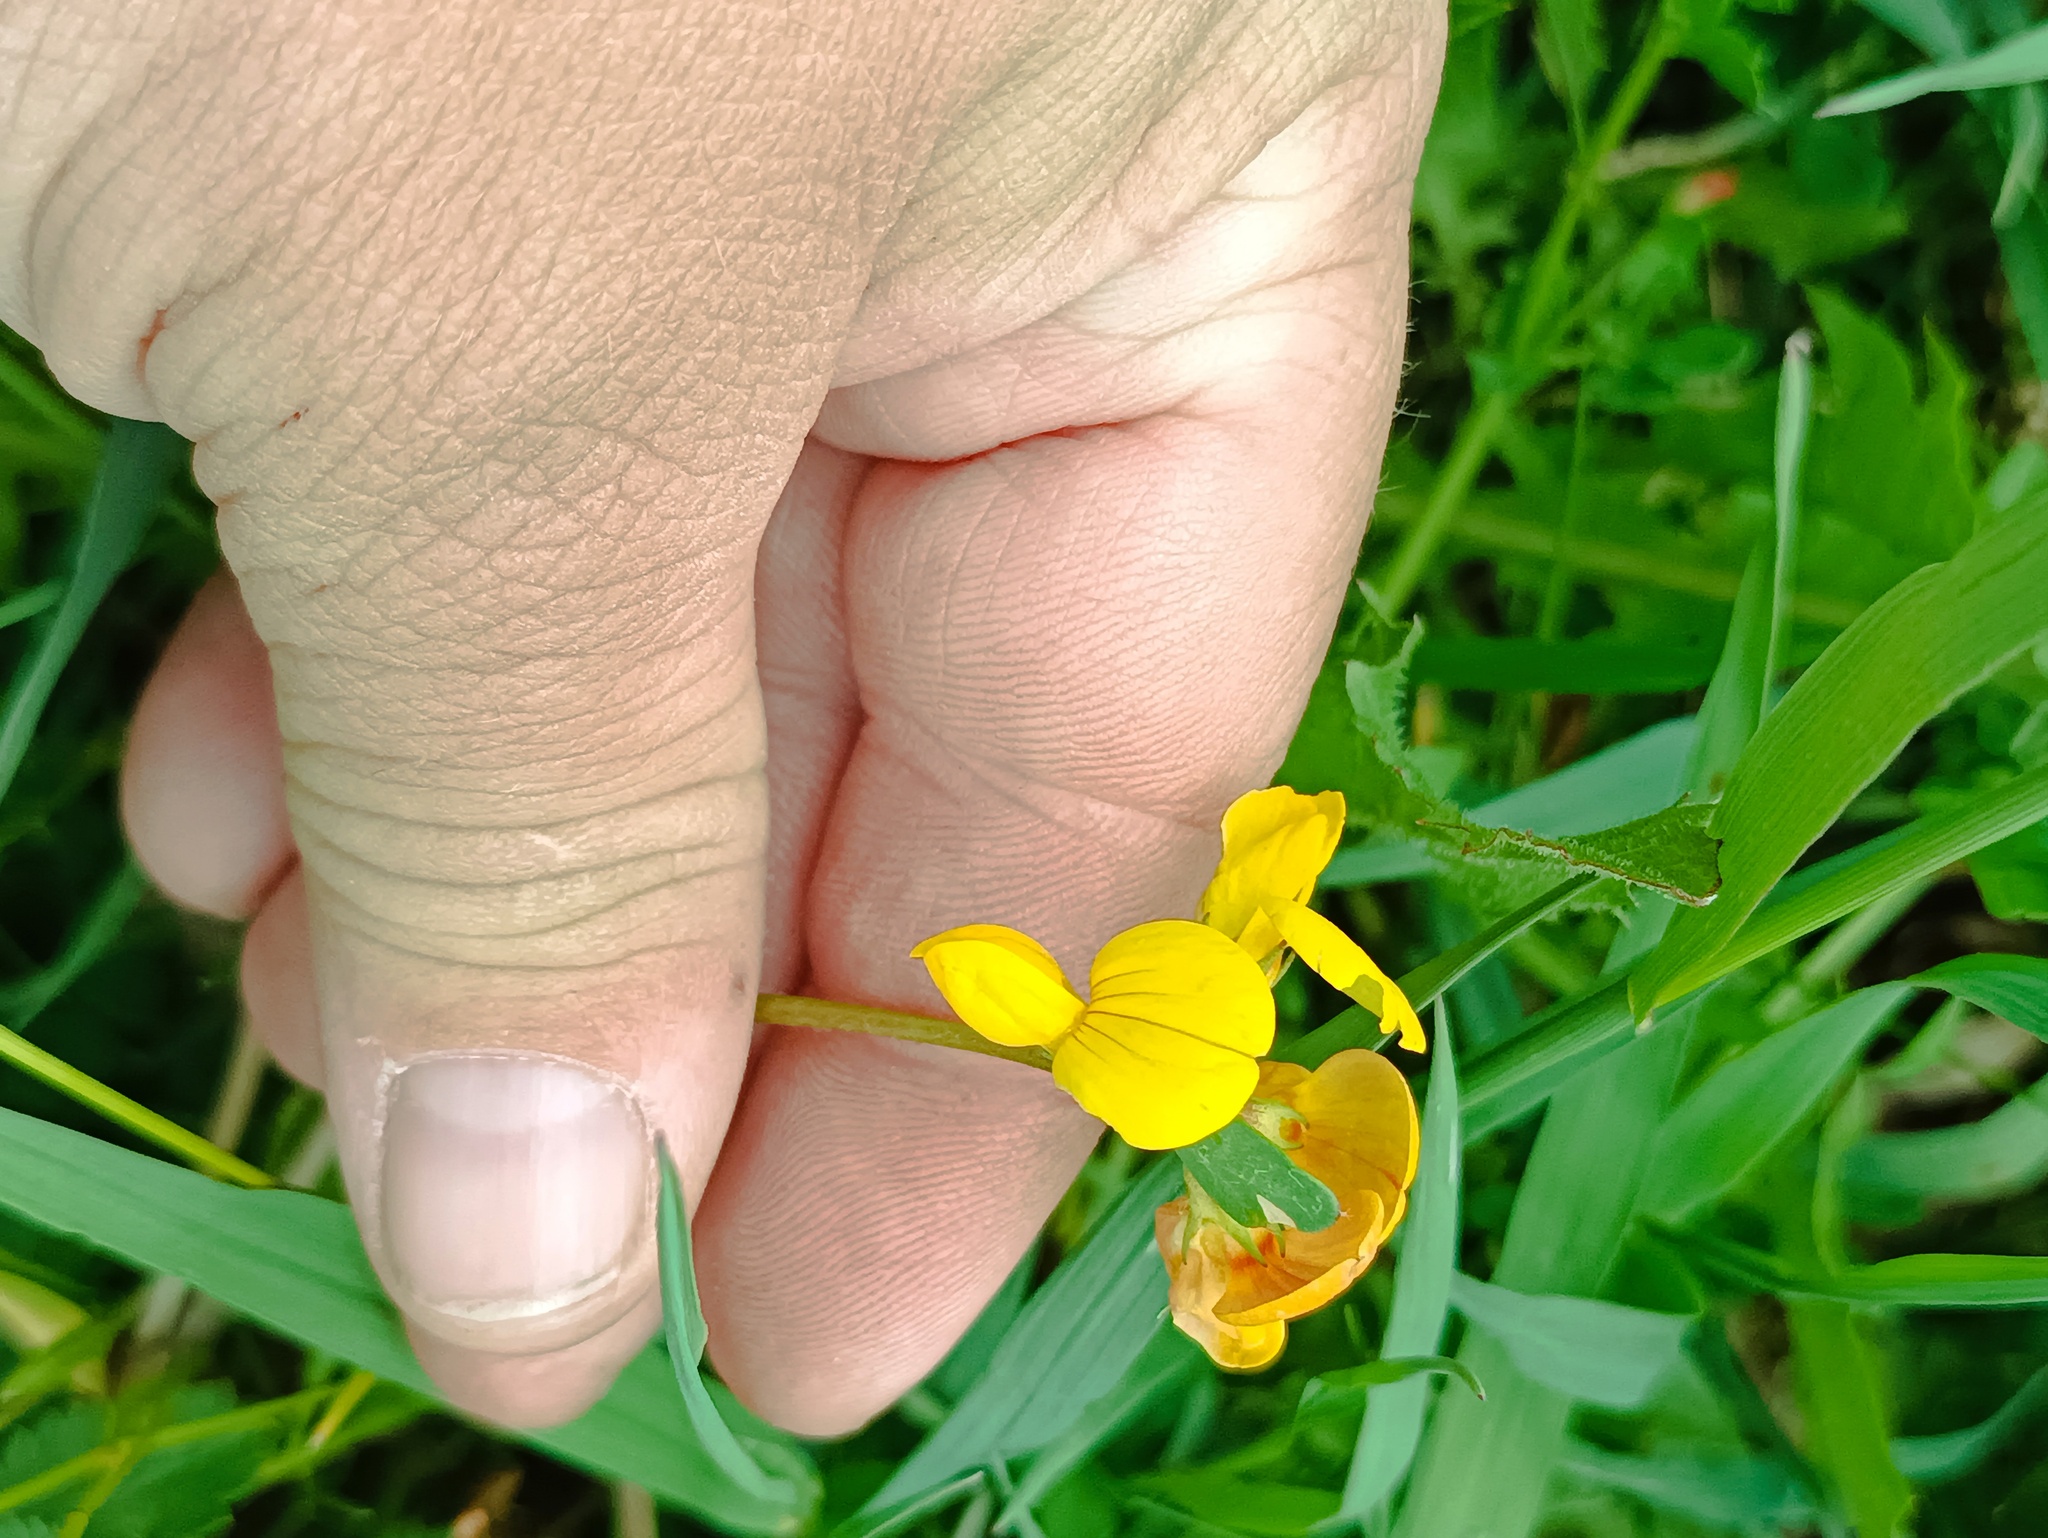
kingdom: Plantae
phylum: Tracheophyta
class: Magnoliopsida
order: Fabales
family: Fabaceae
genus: Lotus
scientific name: Lotus corniculatus
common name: Common bird's-foot-trefoil
